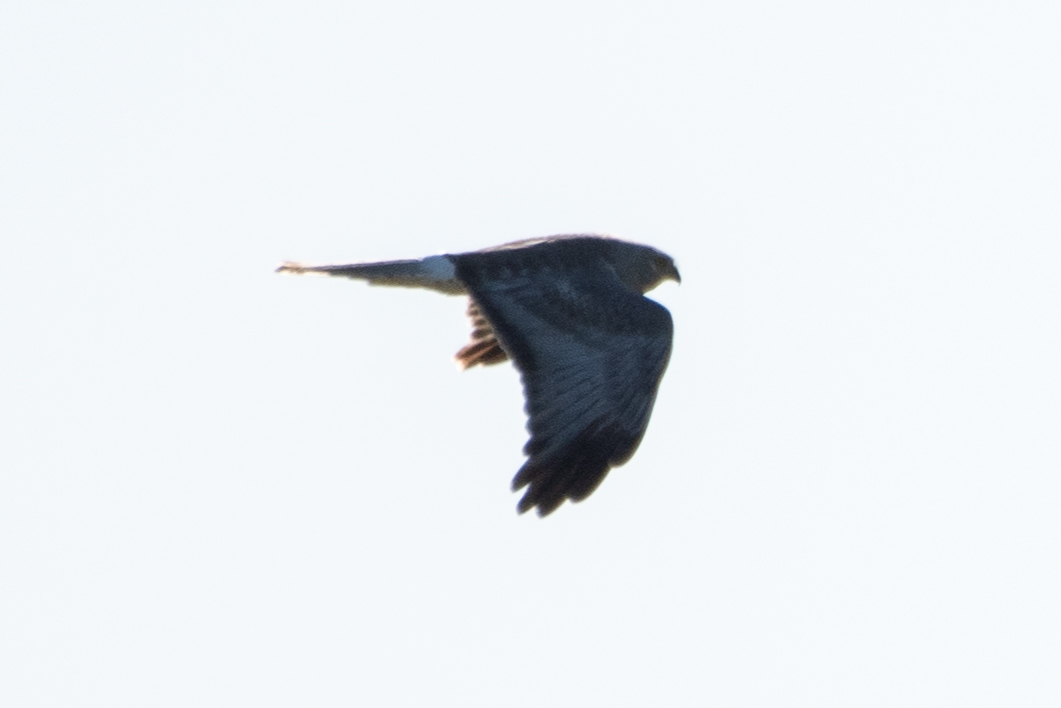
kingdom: Animalia
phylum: Chordata
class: Aves
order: Accipitriformes
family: Accipitridae
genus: Circus
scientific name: Circus cyaneus
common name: Hen harrier
